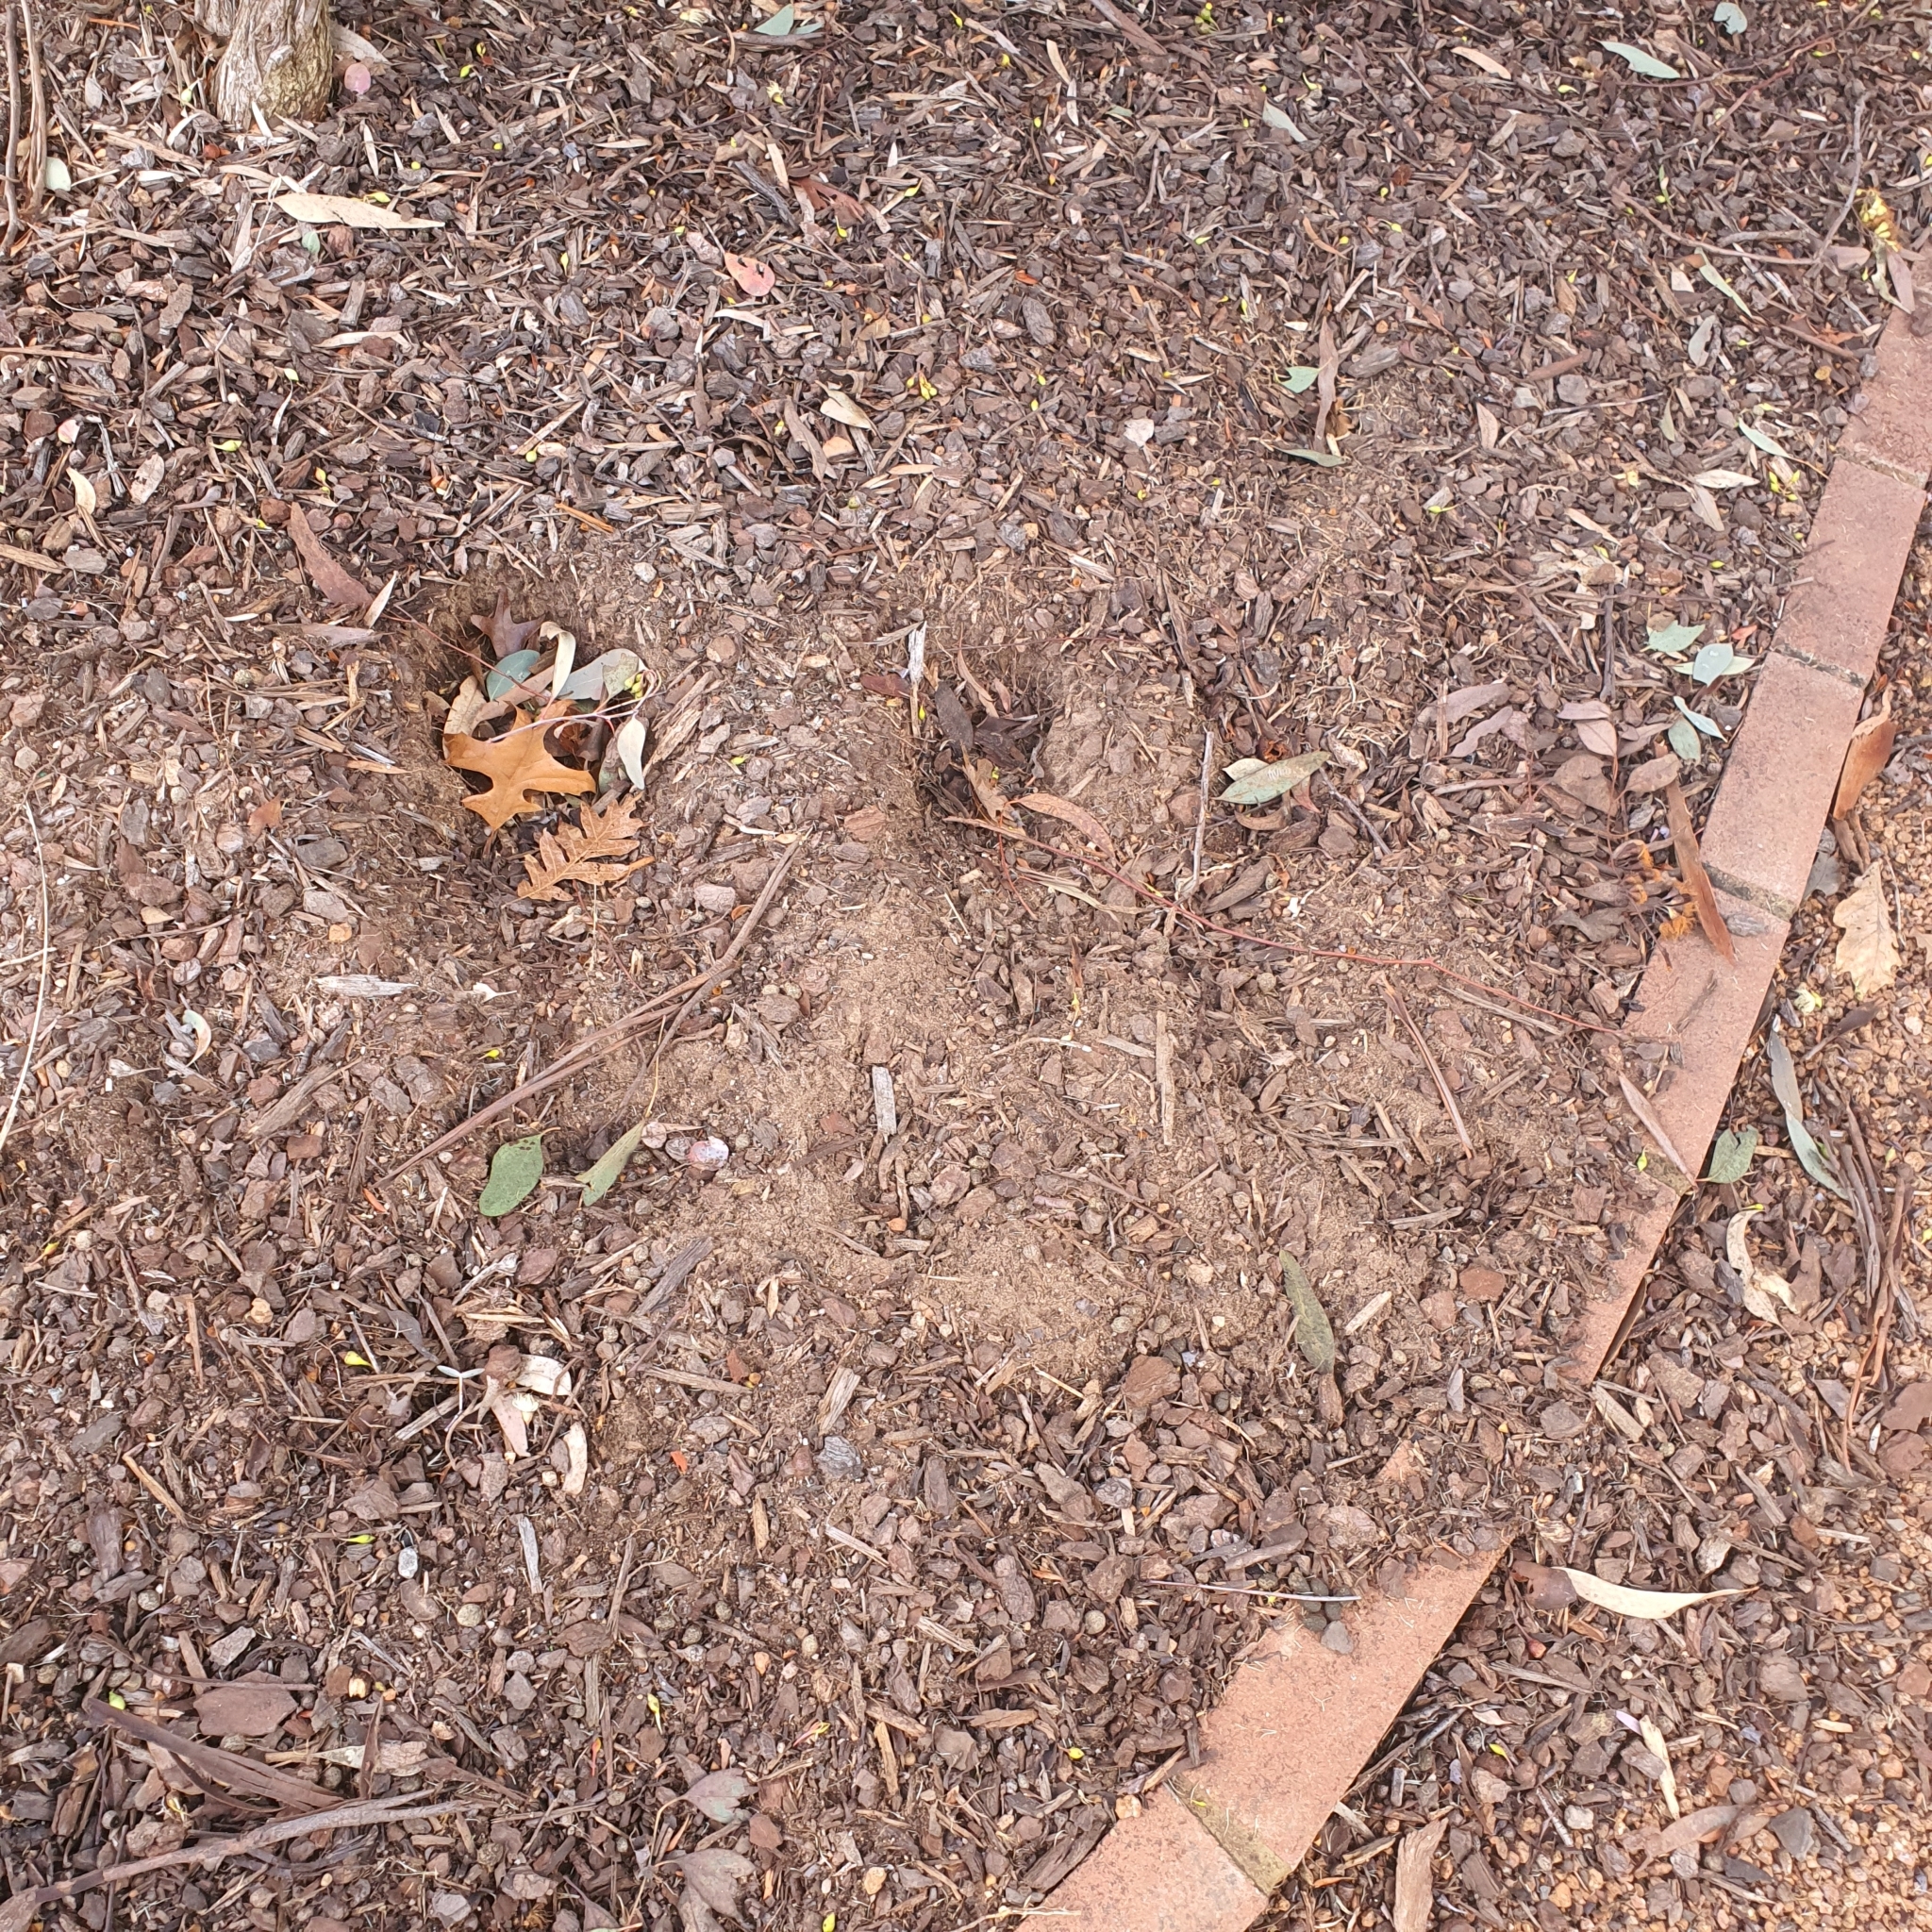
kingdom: Animalia
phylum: Chordata
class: Mammalia
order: Lagomorpha
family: Leporidae
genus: Oryctolagus
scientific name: Oryctolagus cuniculus
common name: European rabbit
